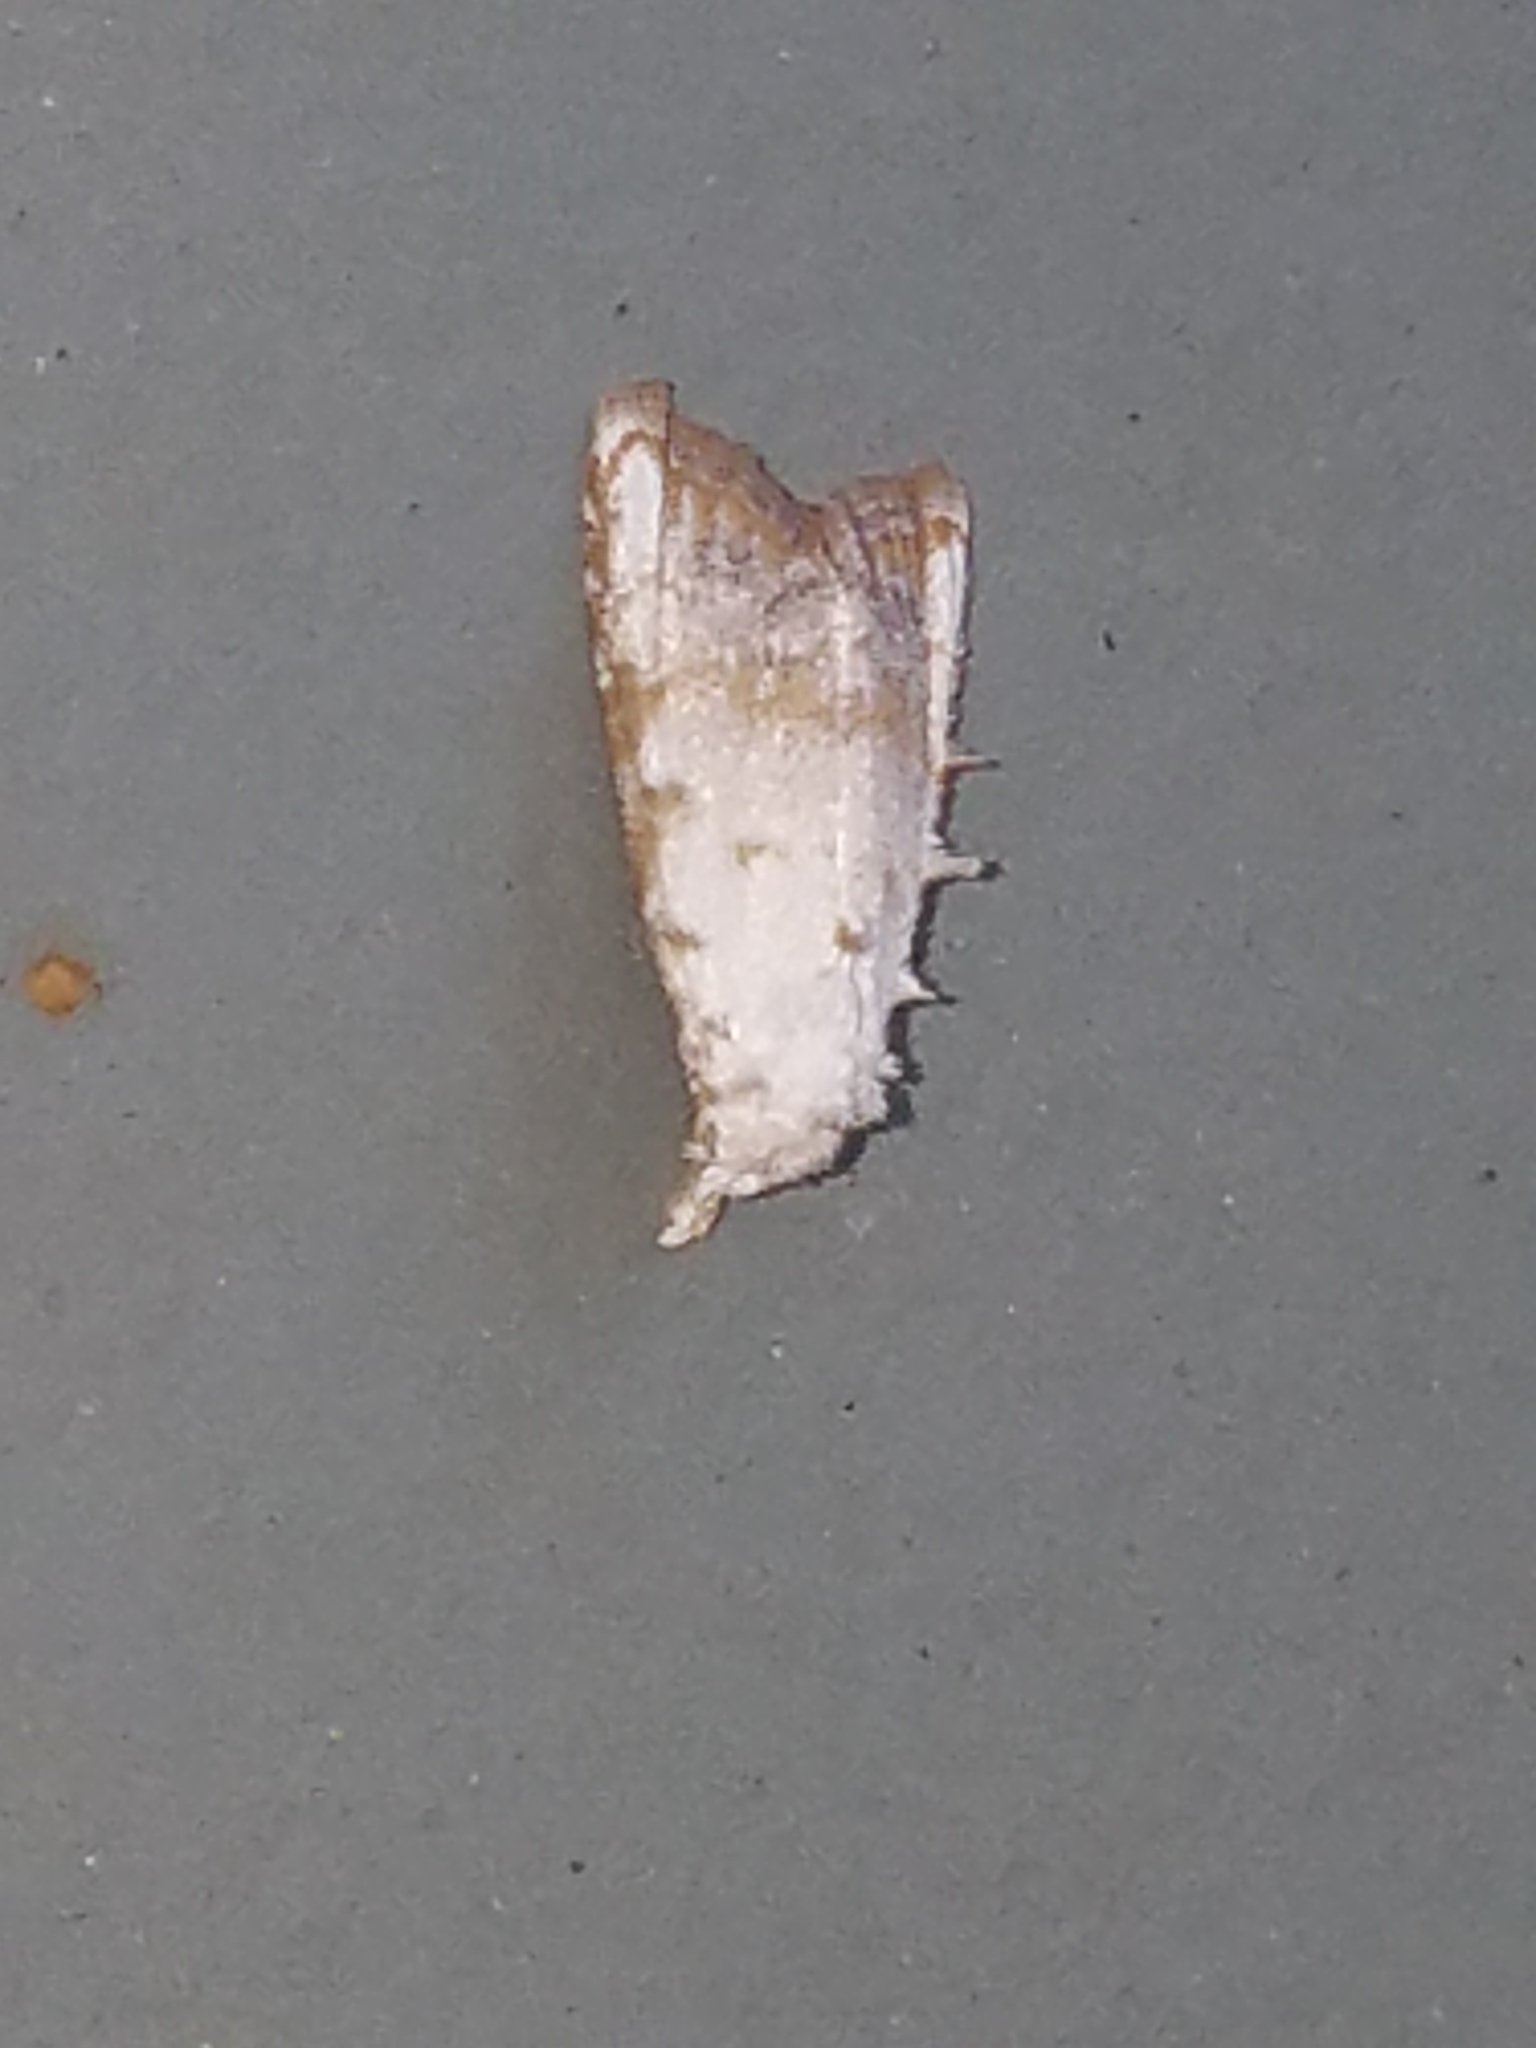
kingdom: Animalia
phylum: Arthropoda
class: Insecta
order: Lepidoptera
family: Nolidae
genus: Nola
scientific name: Nola cereella
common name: Sorghum webworm moth
